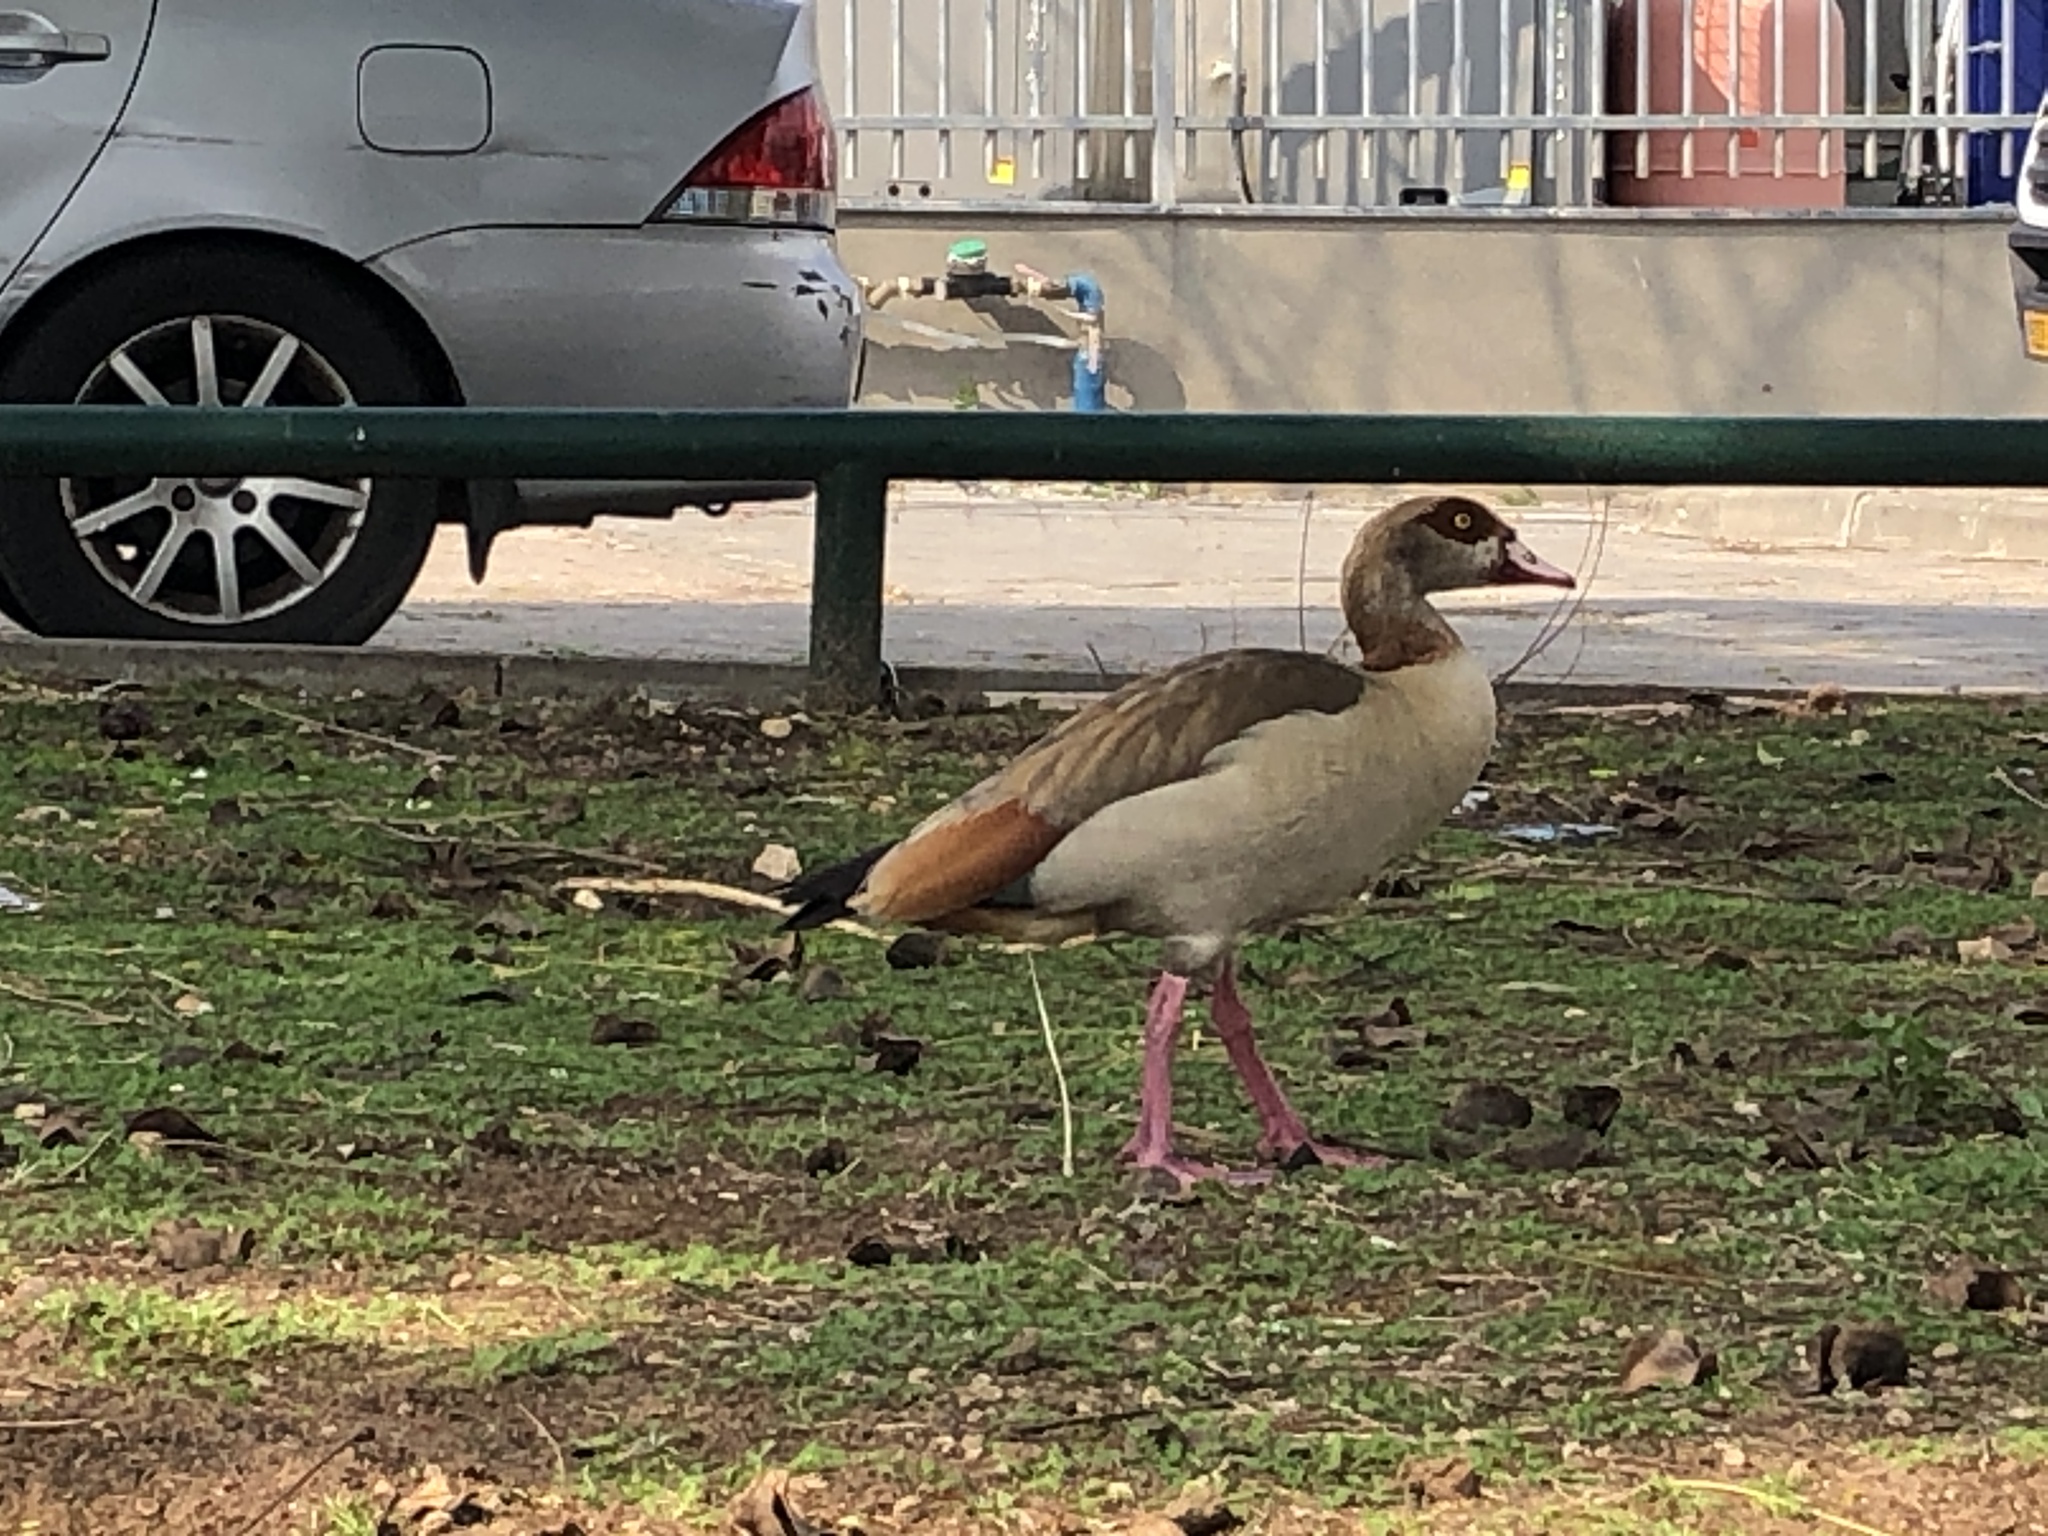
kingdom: Animalia
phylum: Chordata
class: Aves
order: Anseriformes
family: Anatidae
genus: Alopochen
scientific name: Alopochen aegyptiaca
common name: Egyptian goose
